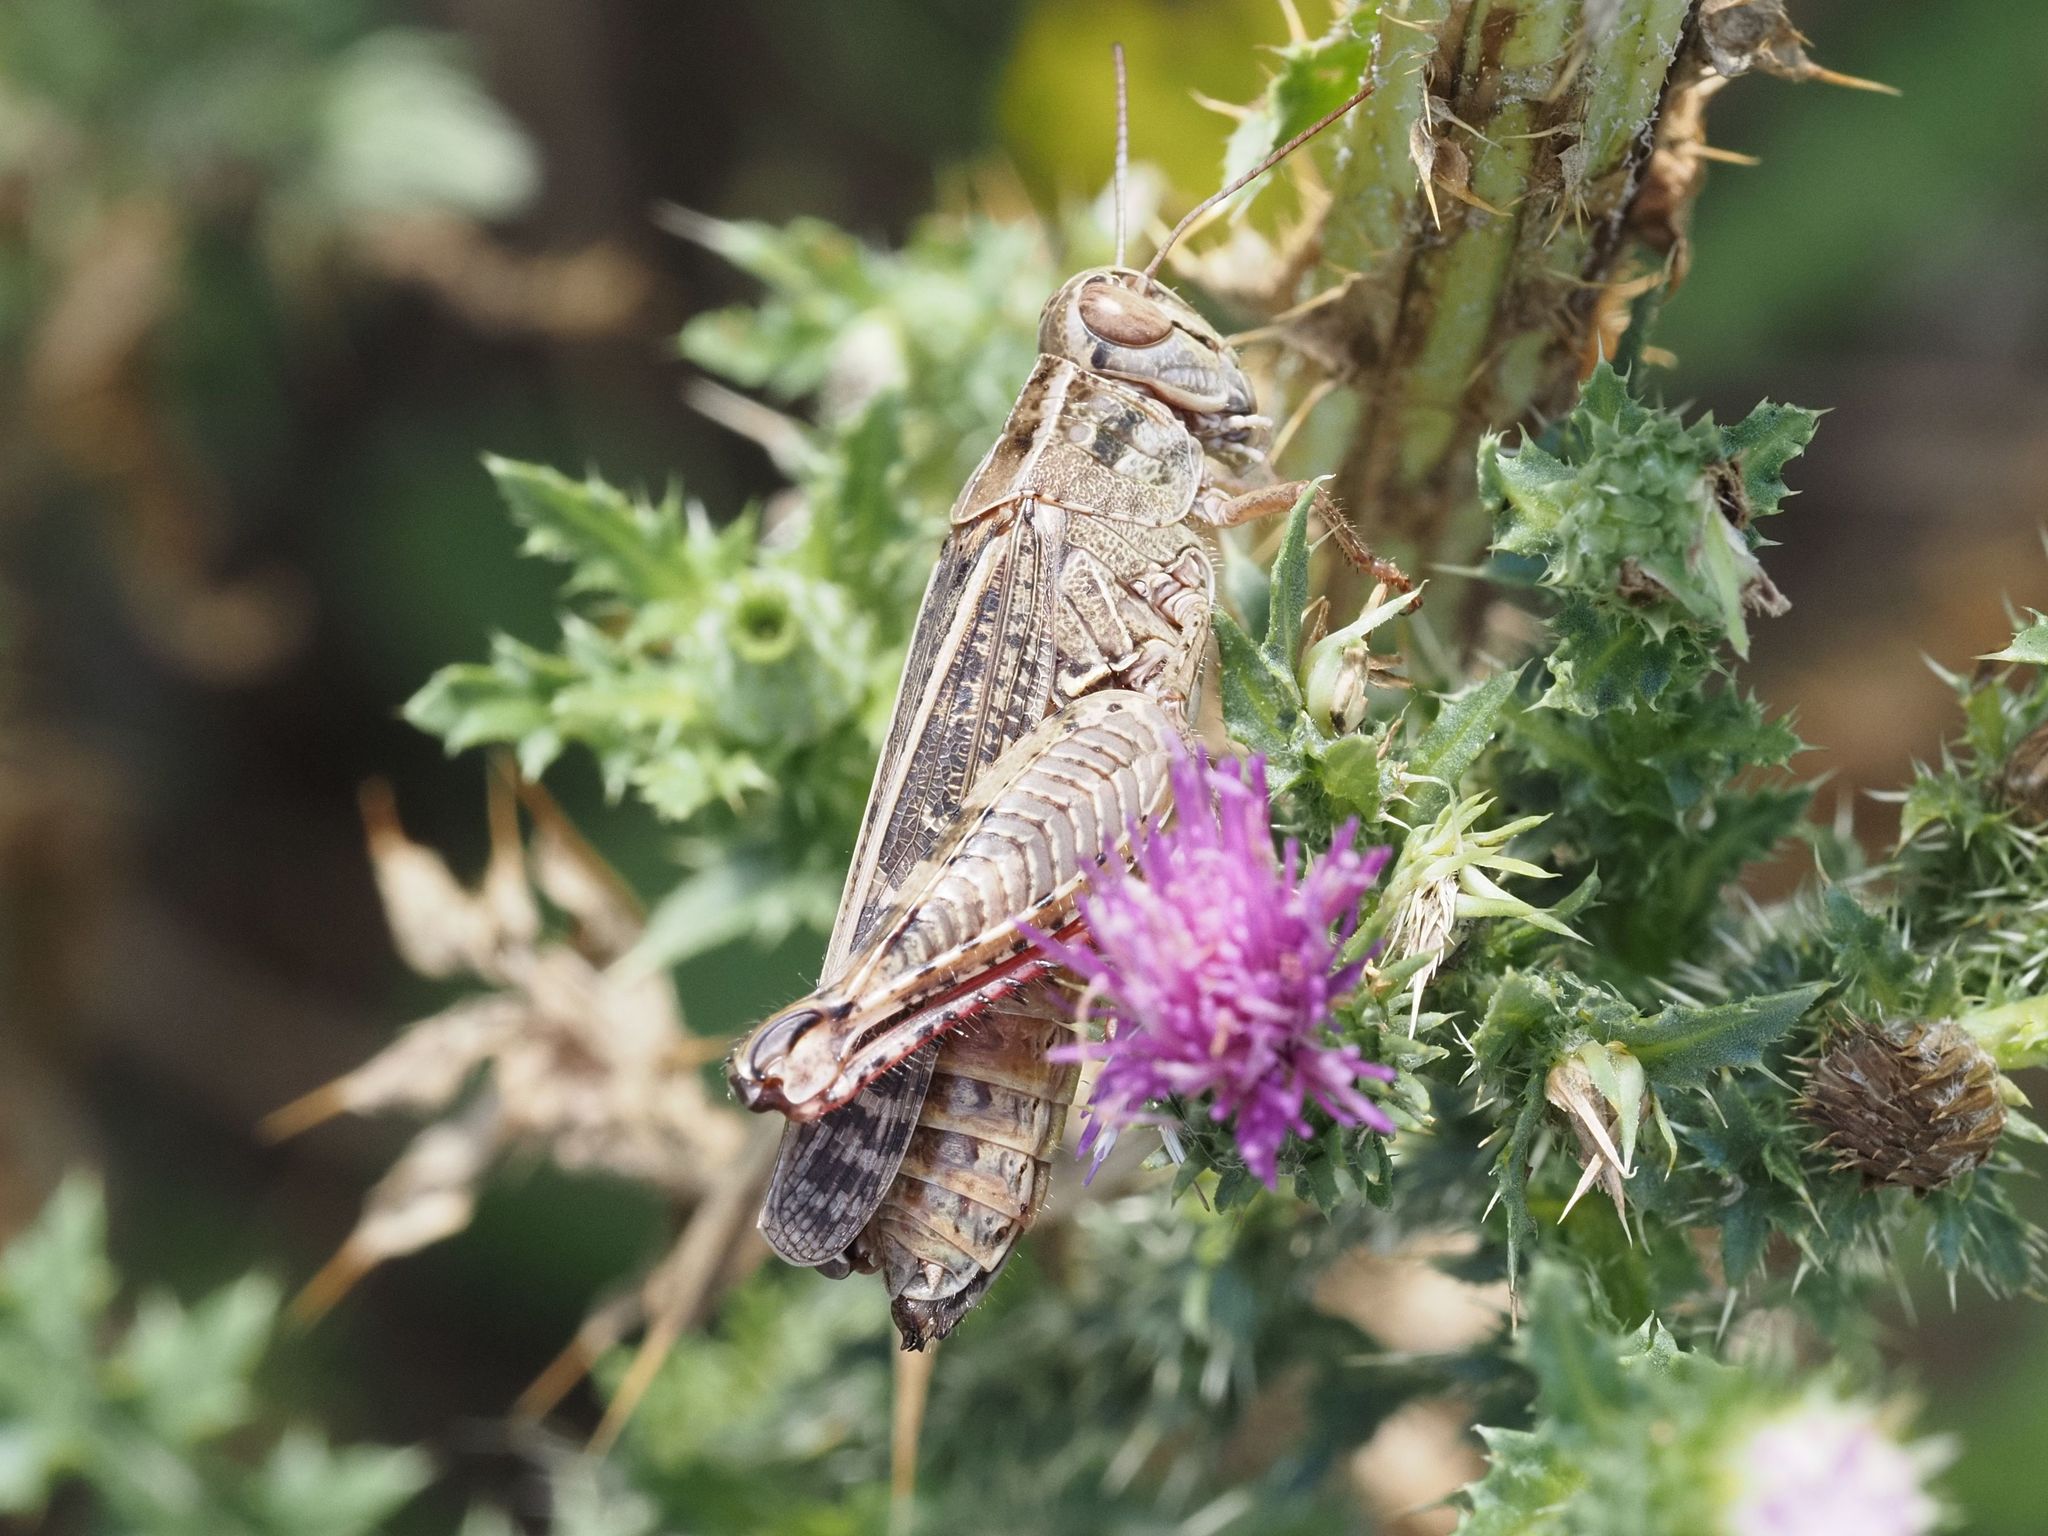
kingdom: Animalia
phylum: Arthropoda
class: Insecta
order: Orthoptera
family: Acrididae
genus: Calliptamus
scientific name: Calliptamus italicus
